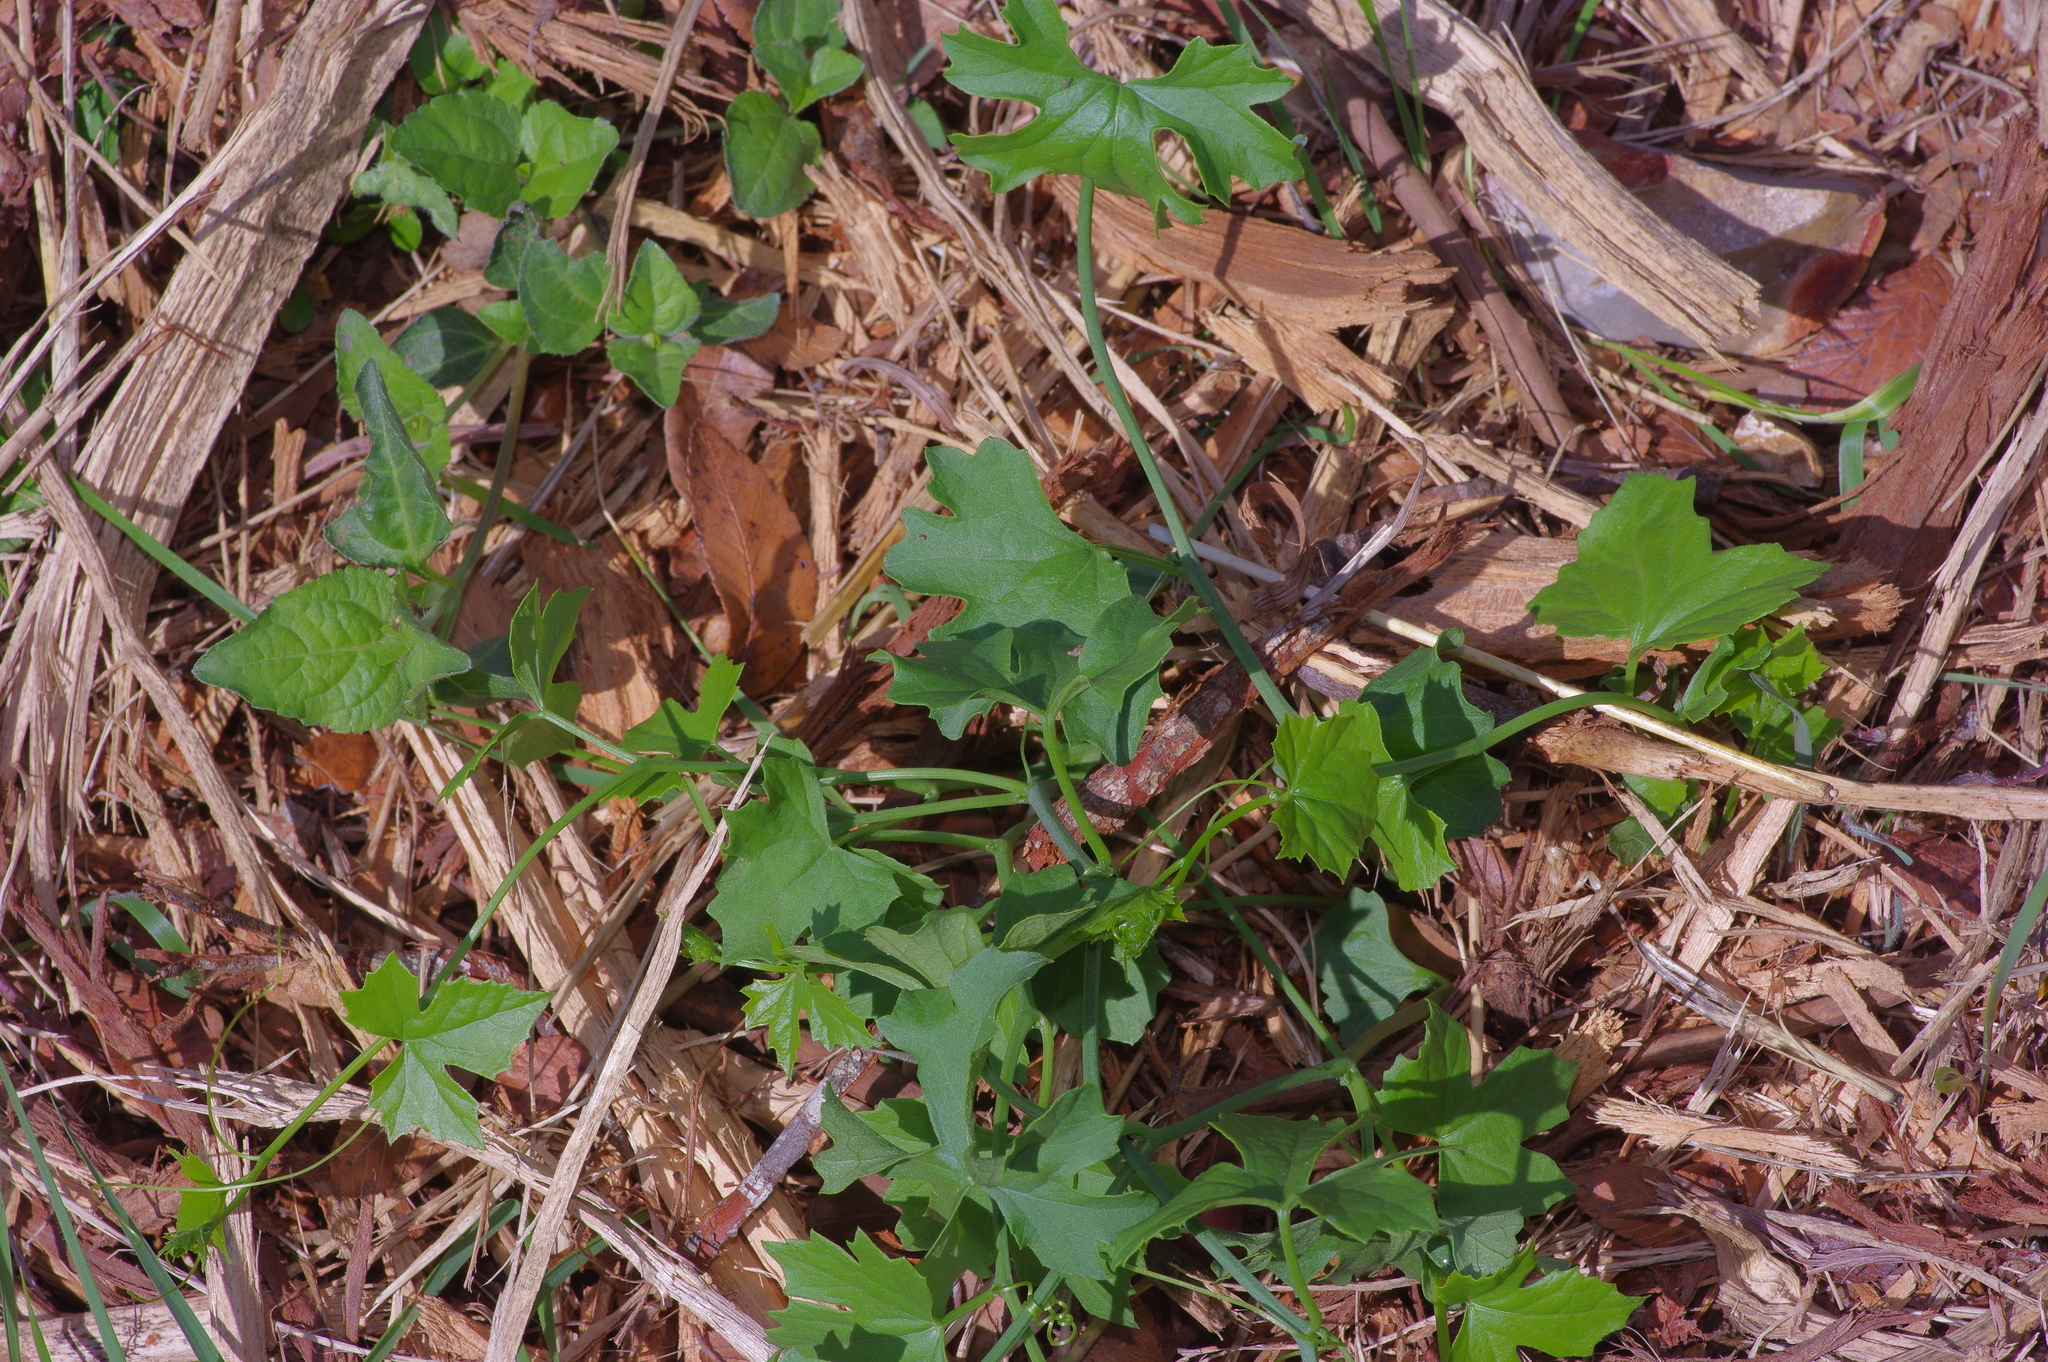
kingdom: Plantae
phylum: Tracheophyta
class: Magnoliopsida
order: Cucurbitales
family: Cucurbitaceae
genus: Ibervillea
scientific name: Ibervillea lindheimeri
